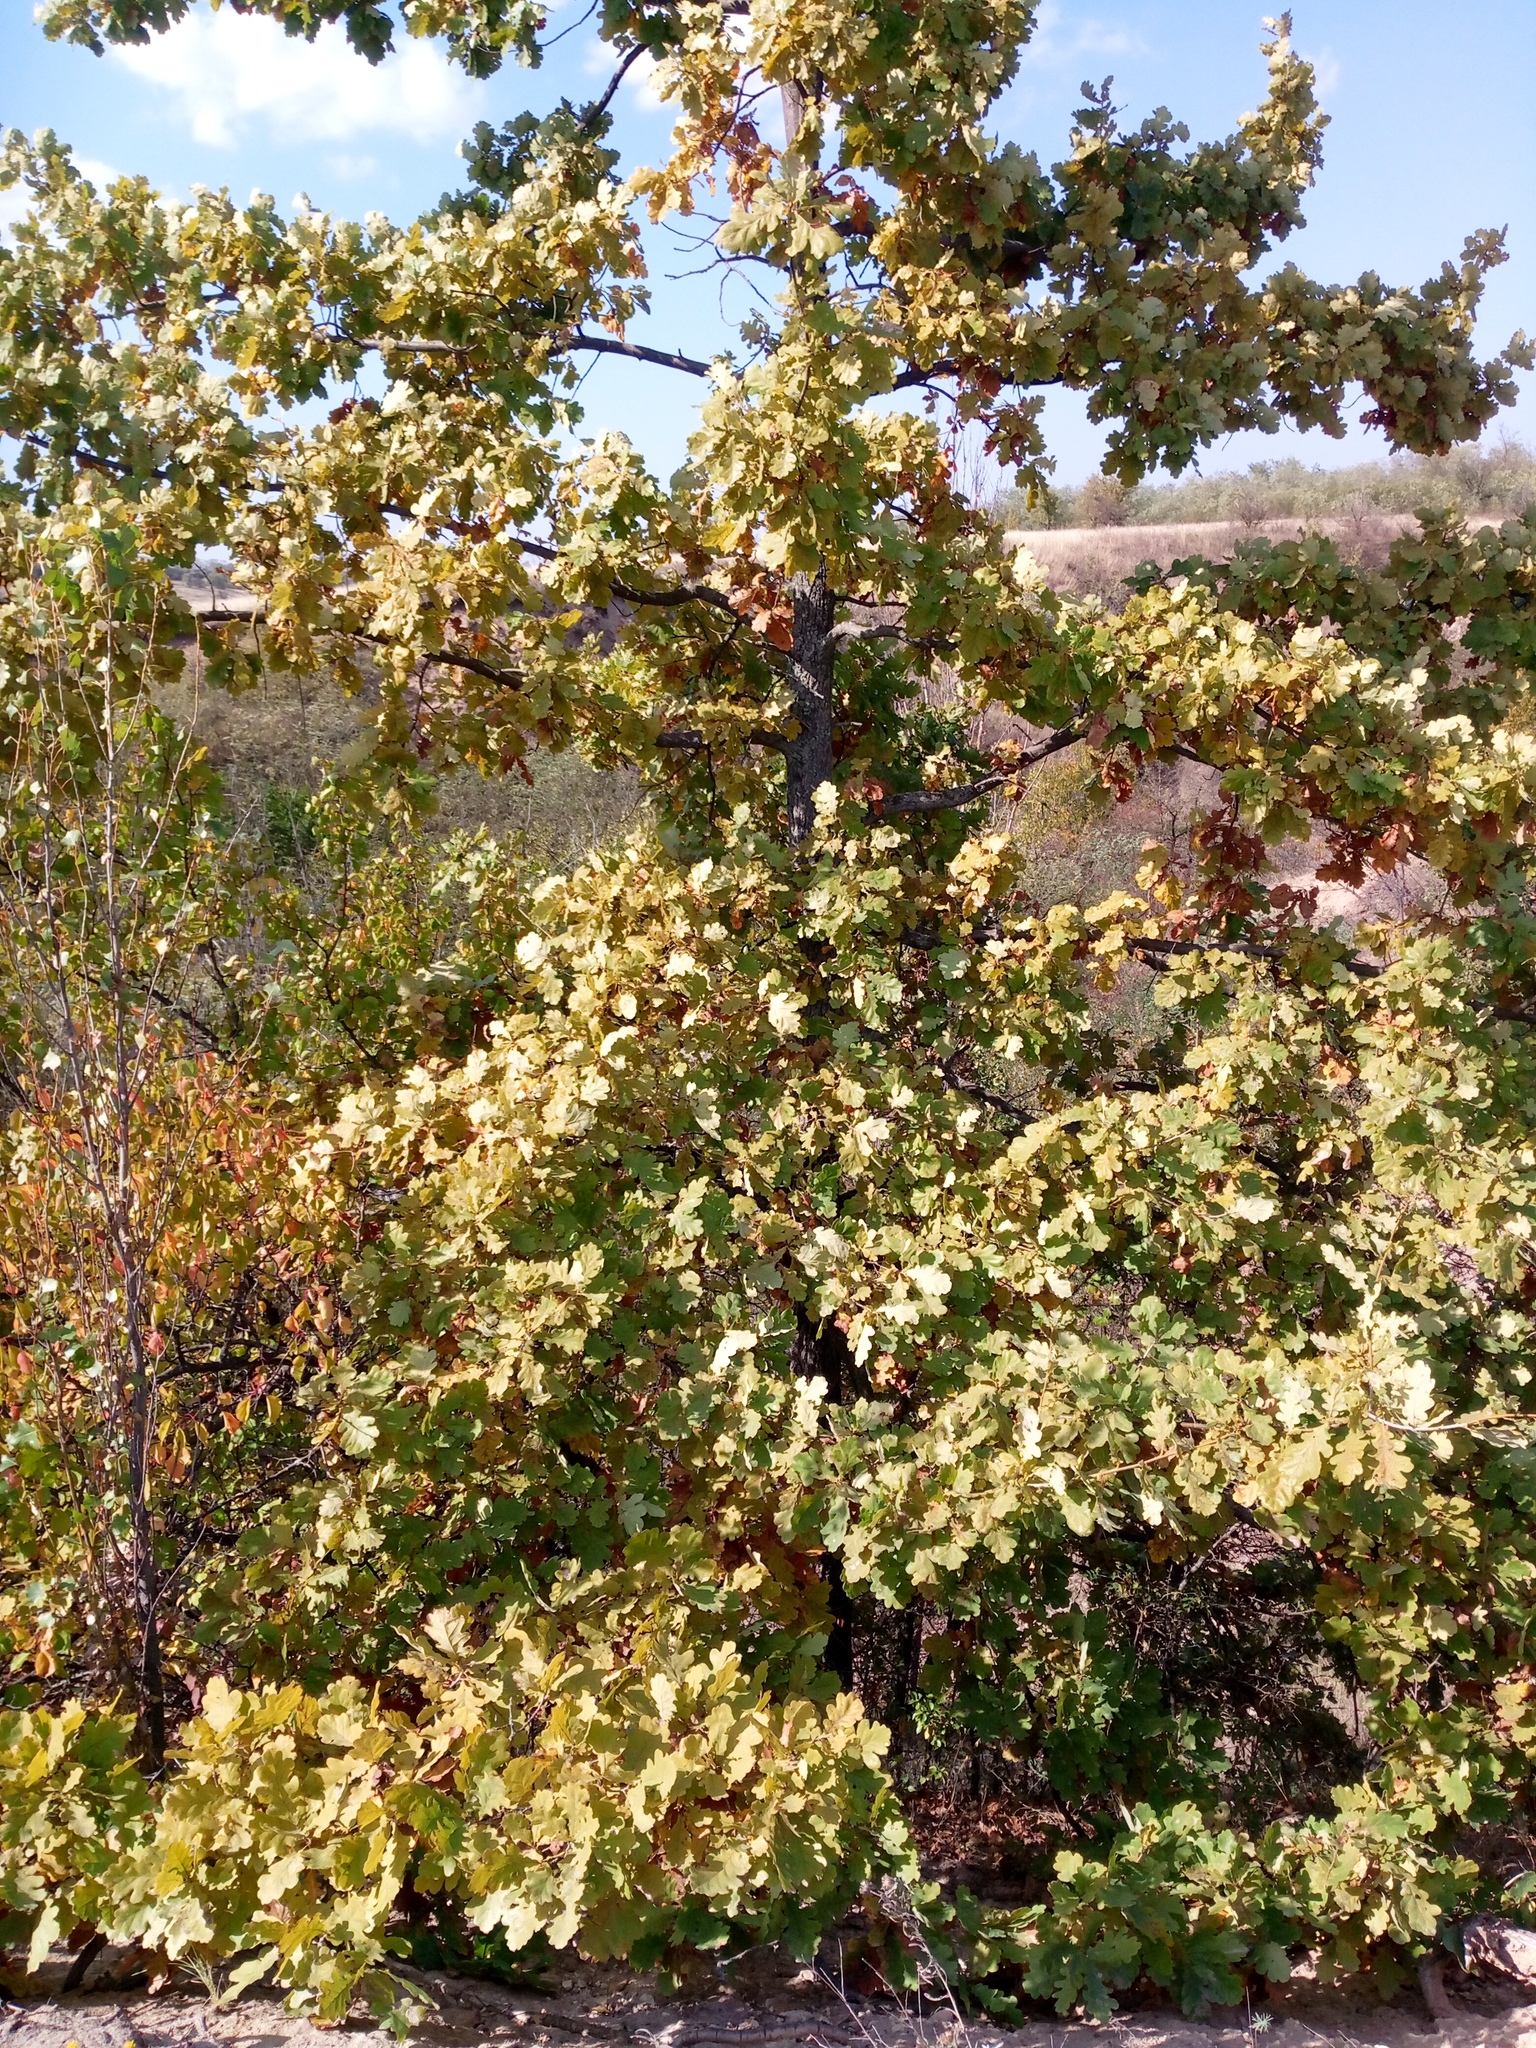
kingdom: Plantae
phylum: Tracheophyta
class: Magnoliopsida
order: Fagales
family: Fagaceae
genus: Quercus
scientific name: Quercus robur
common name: Pedunculate oak
